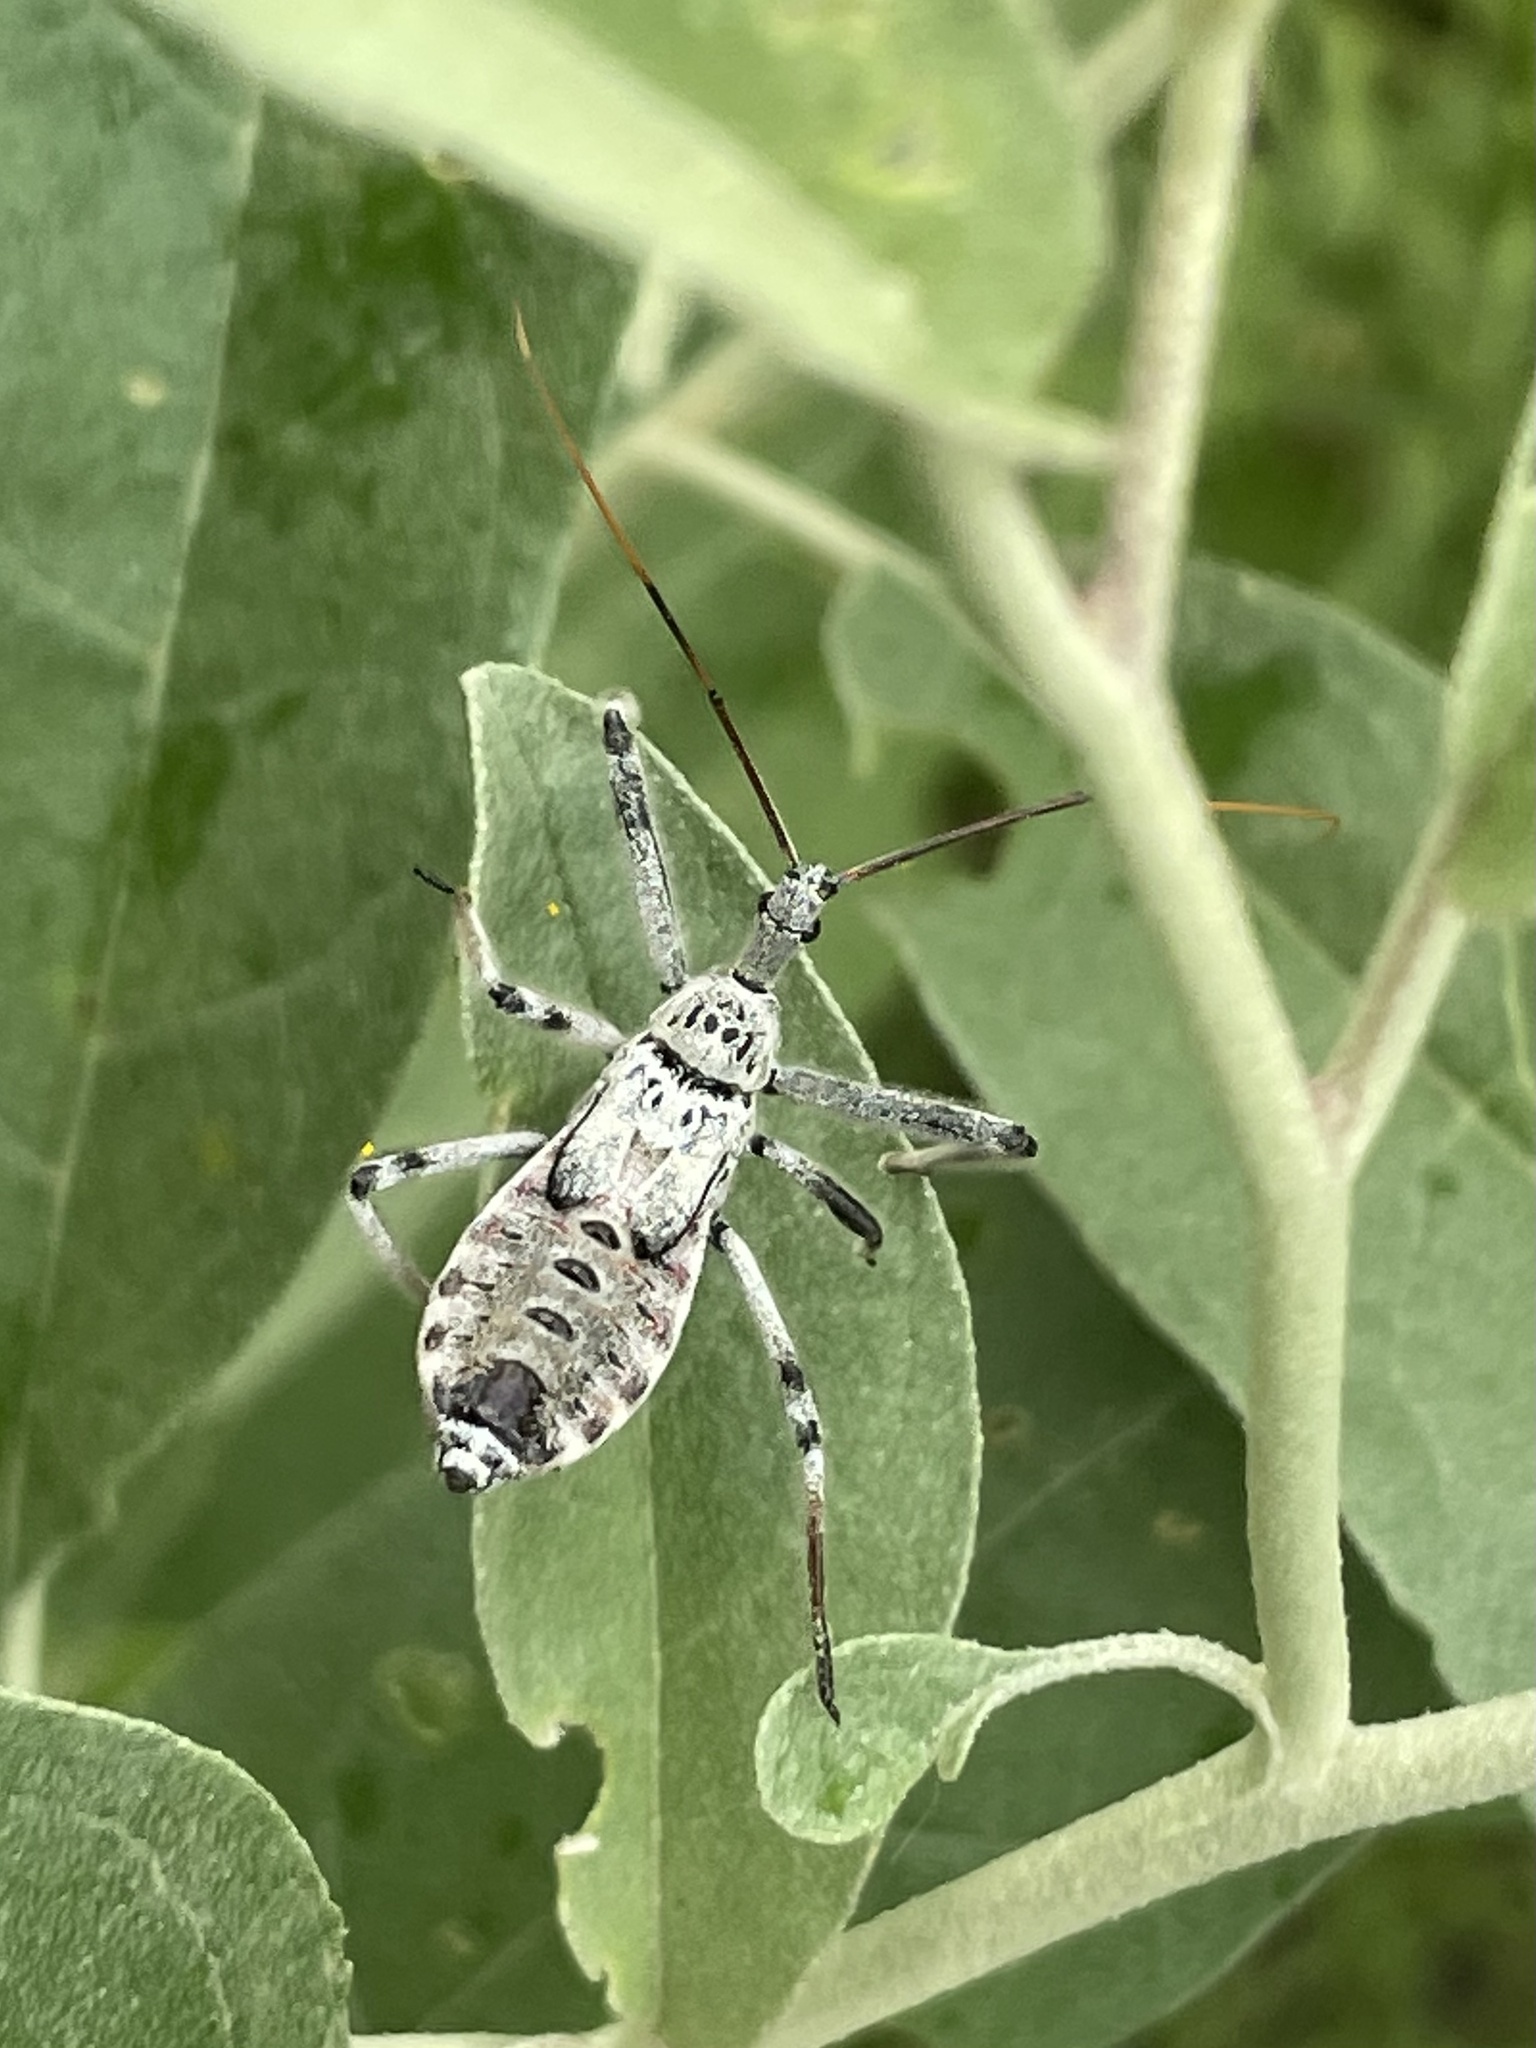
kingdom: Animalia
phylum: Arthropoda
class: Insecta
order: Hemiptera
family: Reduviidae
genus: Arilus
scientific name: Arilus cristatus
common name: North american wheel bug
